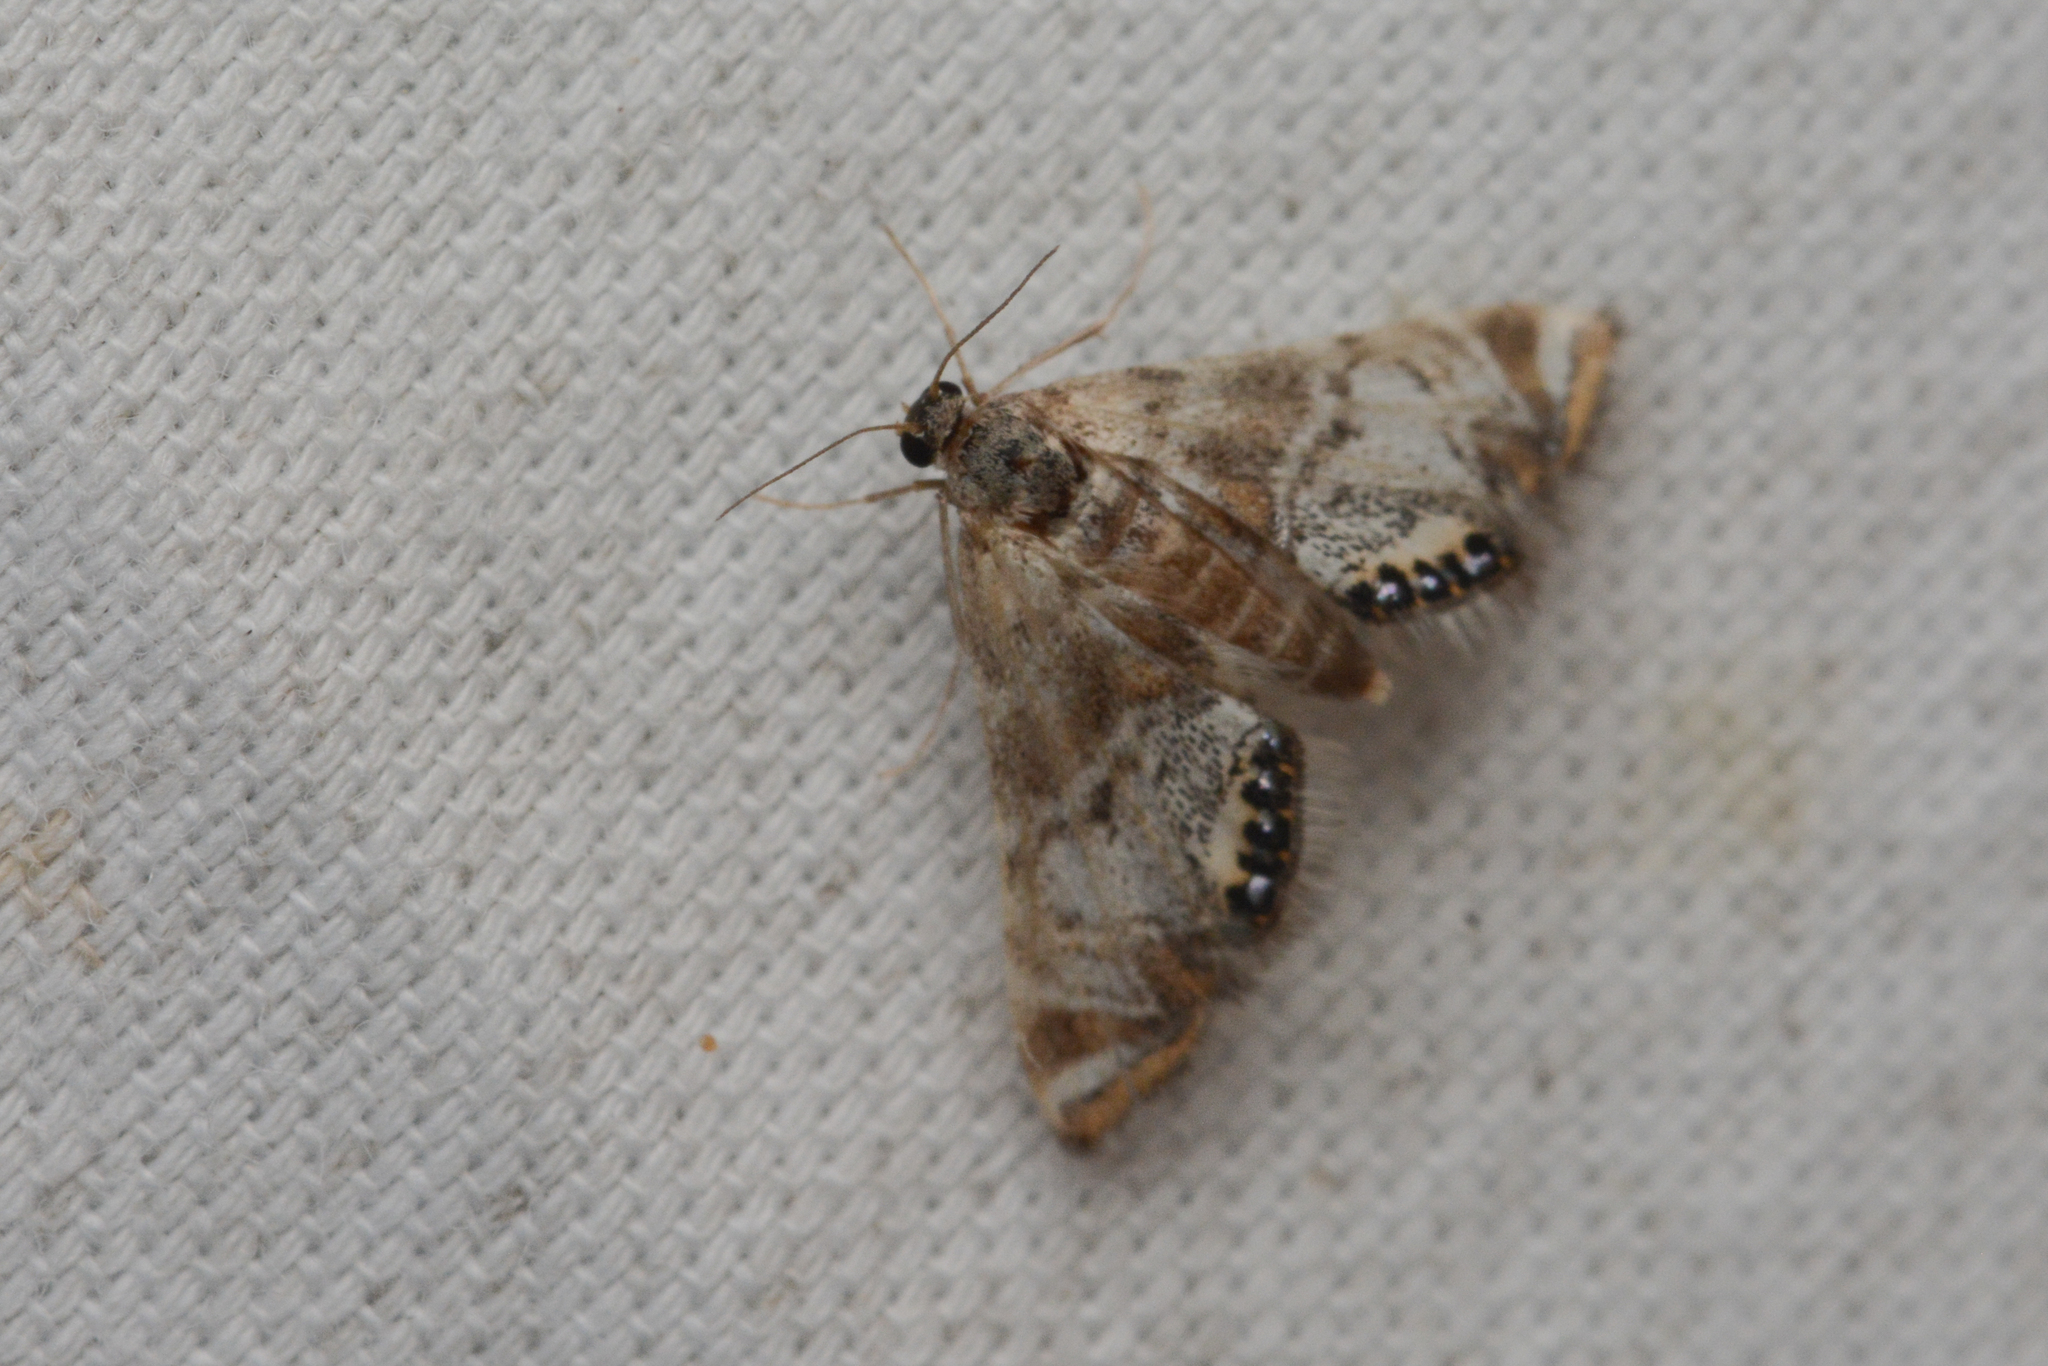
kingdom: Animalia
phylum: Arthropoda
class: Insecta
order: Lepidoptera
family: Crambidae
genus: Petrophila
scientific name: Petrophila confusalis
